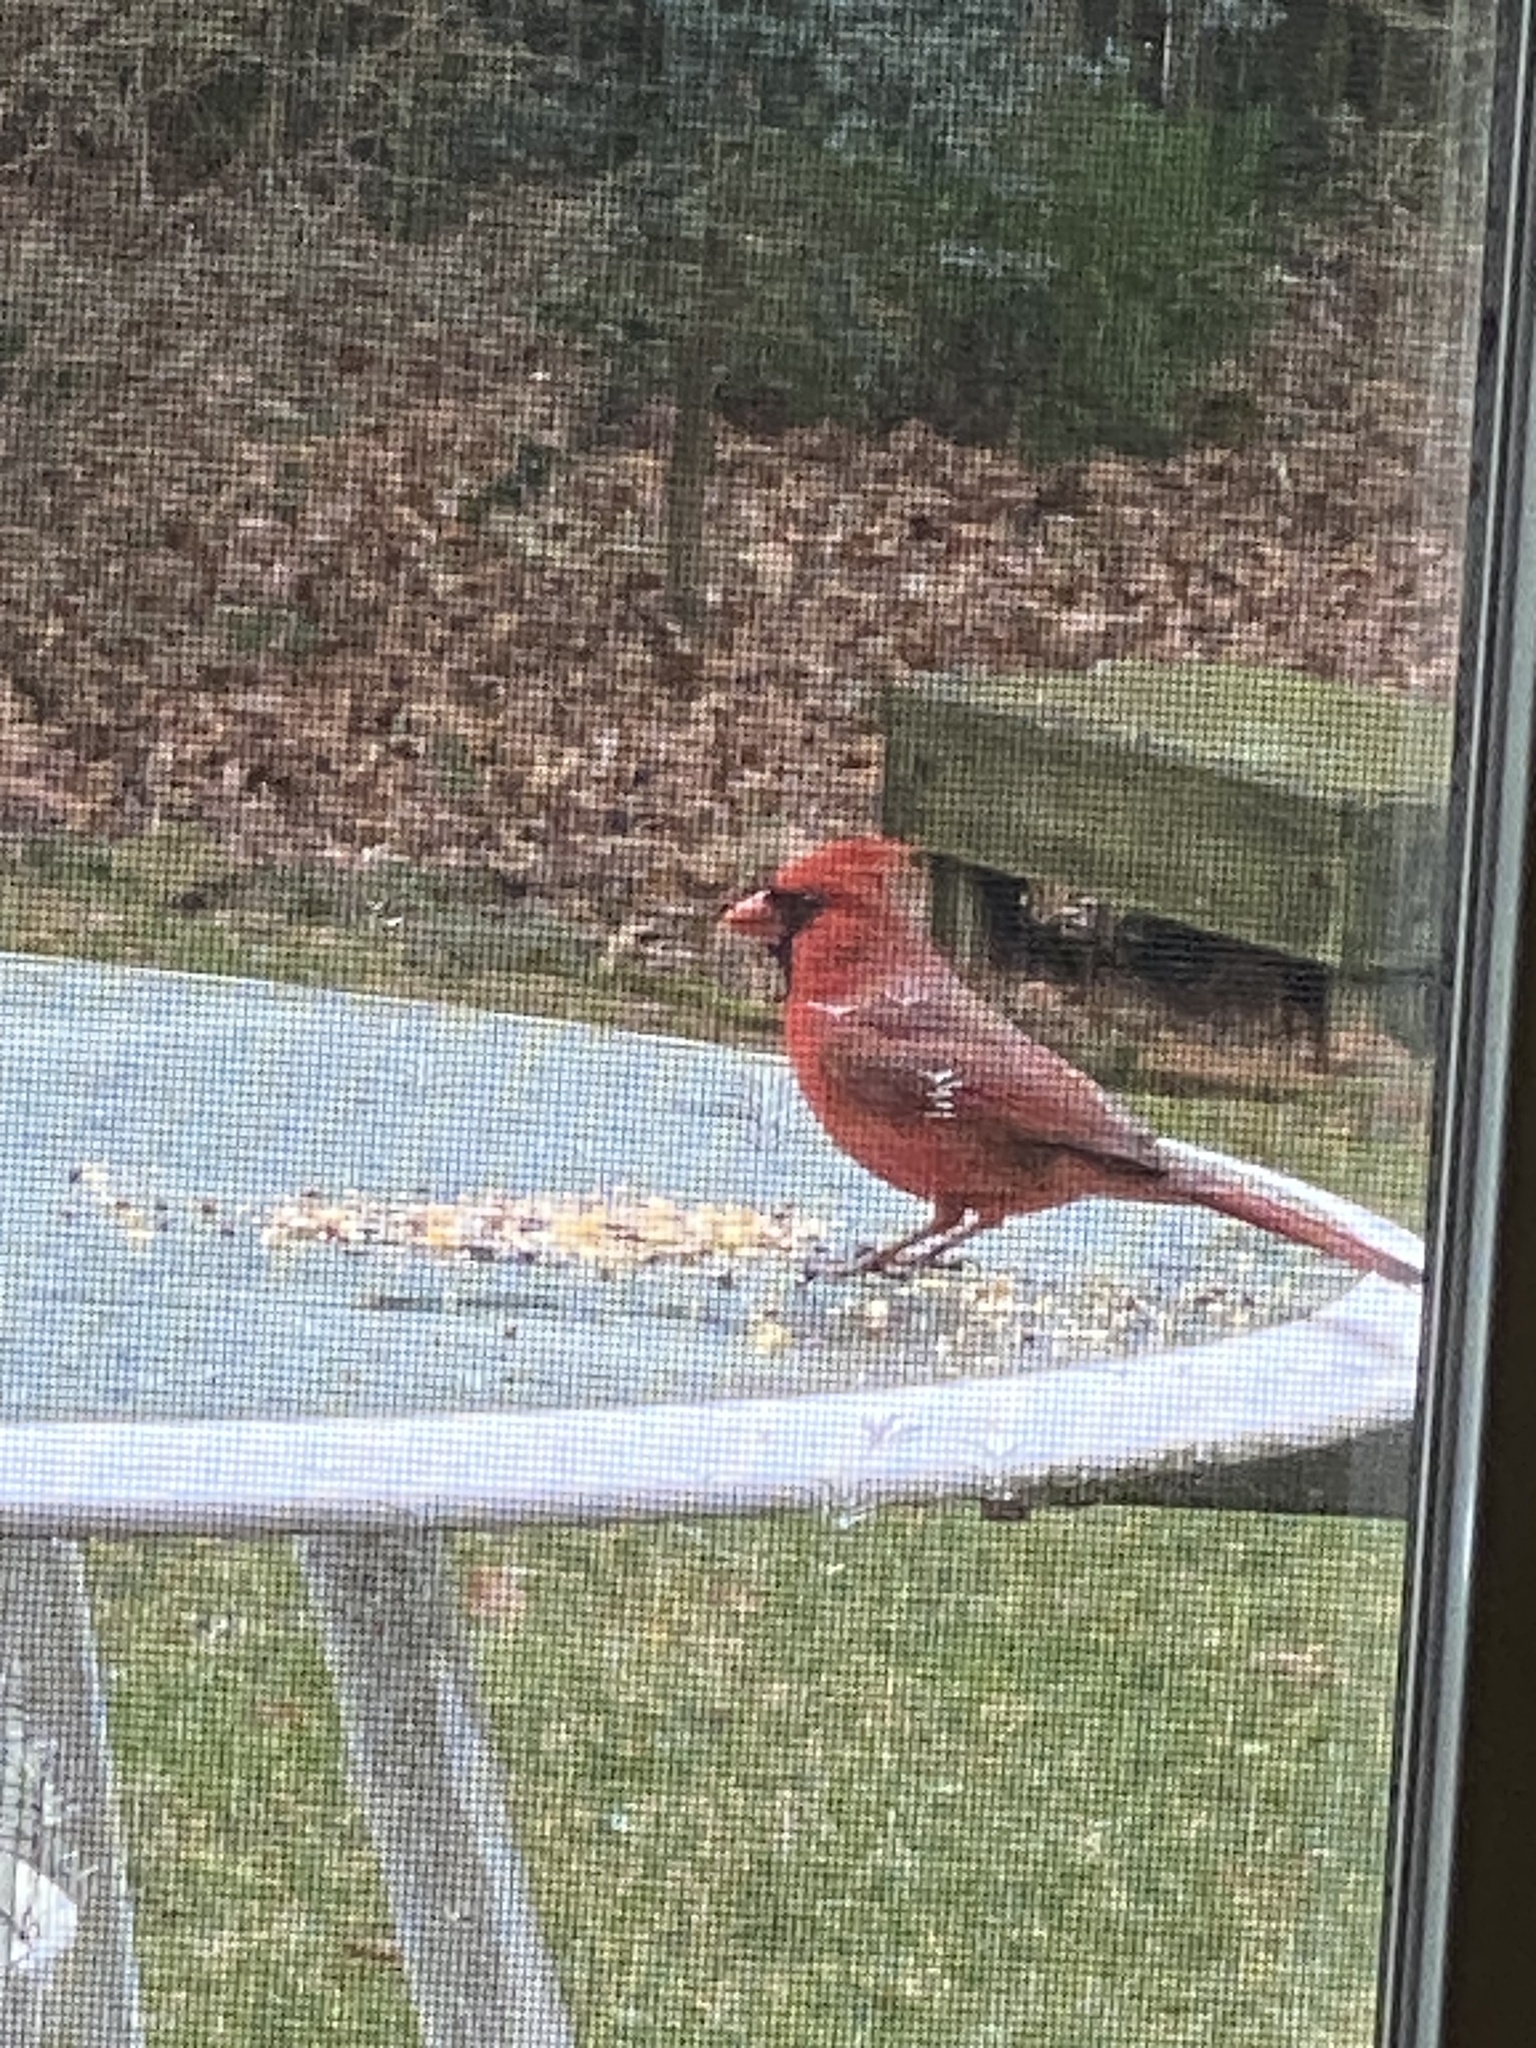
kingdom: Animalia
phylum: Chordata
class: Aves
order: Passeriformes
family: Cardinalidae
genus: Cardinalis
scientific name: Cardinalis cardinalis
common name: Northern cardinal
